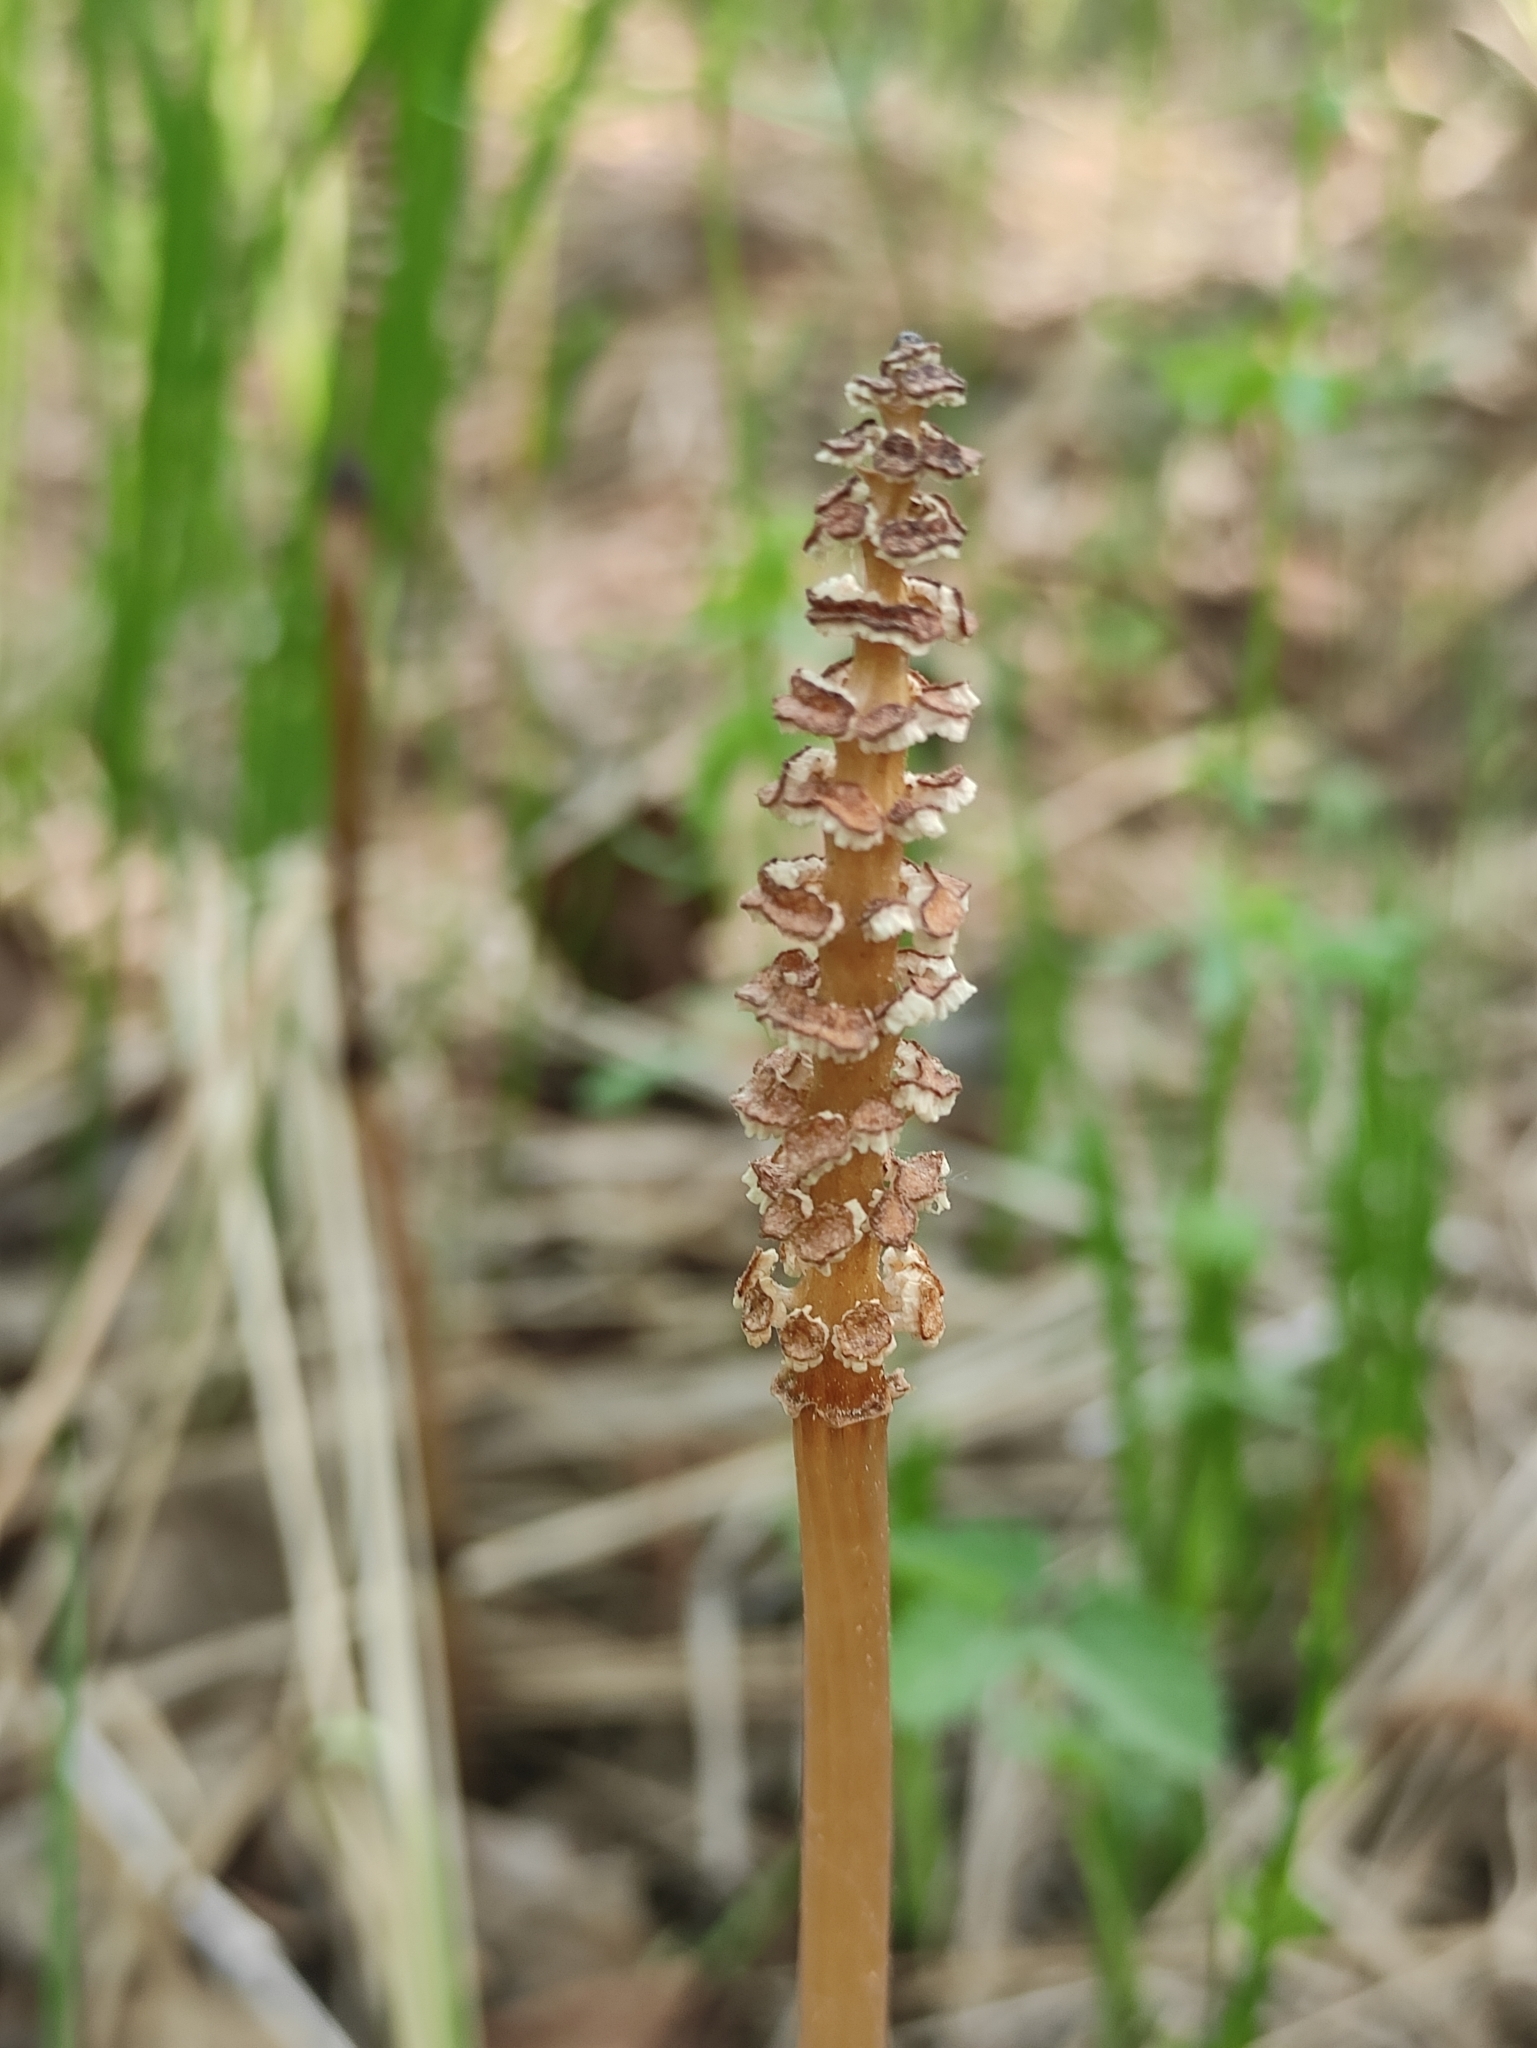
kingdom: Plantae
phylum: Tracheophyta
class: Polypodiopsida
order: Equisetales
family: Equisetaceae
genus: Equisetum
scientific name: Equisetum arvense
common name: Field horsetail
